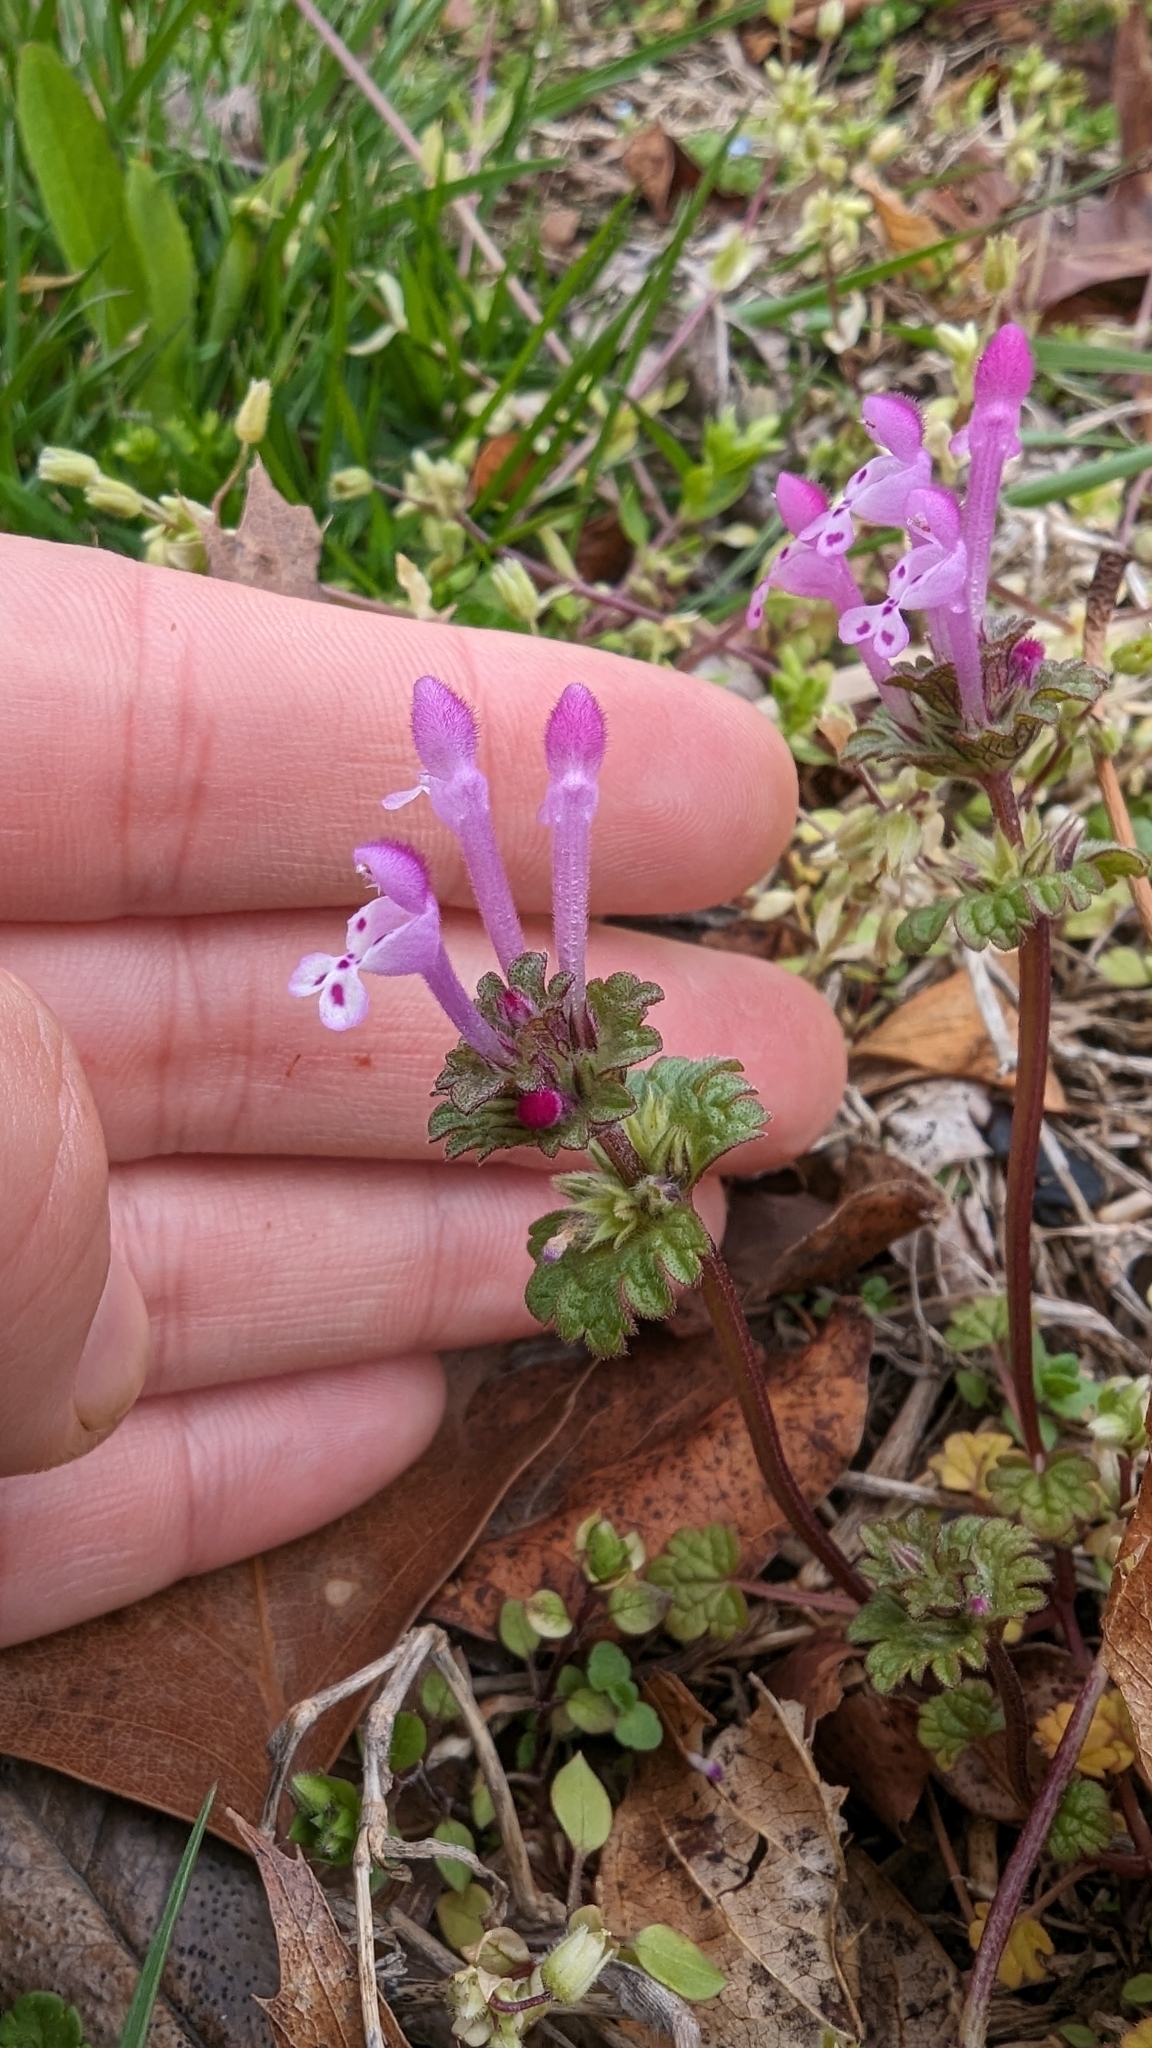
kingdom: Plantae
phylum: Tracheophyta
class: Magnoliopsida
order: Lamiales
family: Lamiaceae
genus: Lamium
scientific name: Lamium amplexicaule
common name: Henbit dead-nettle
